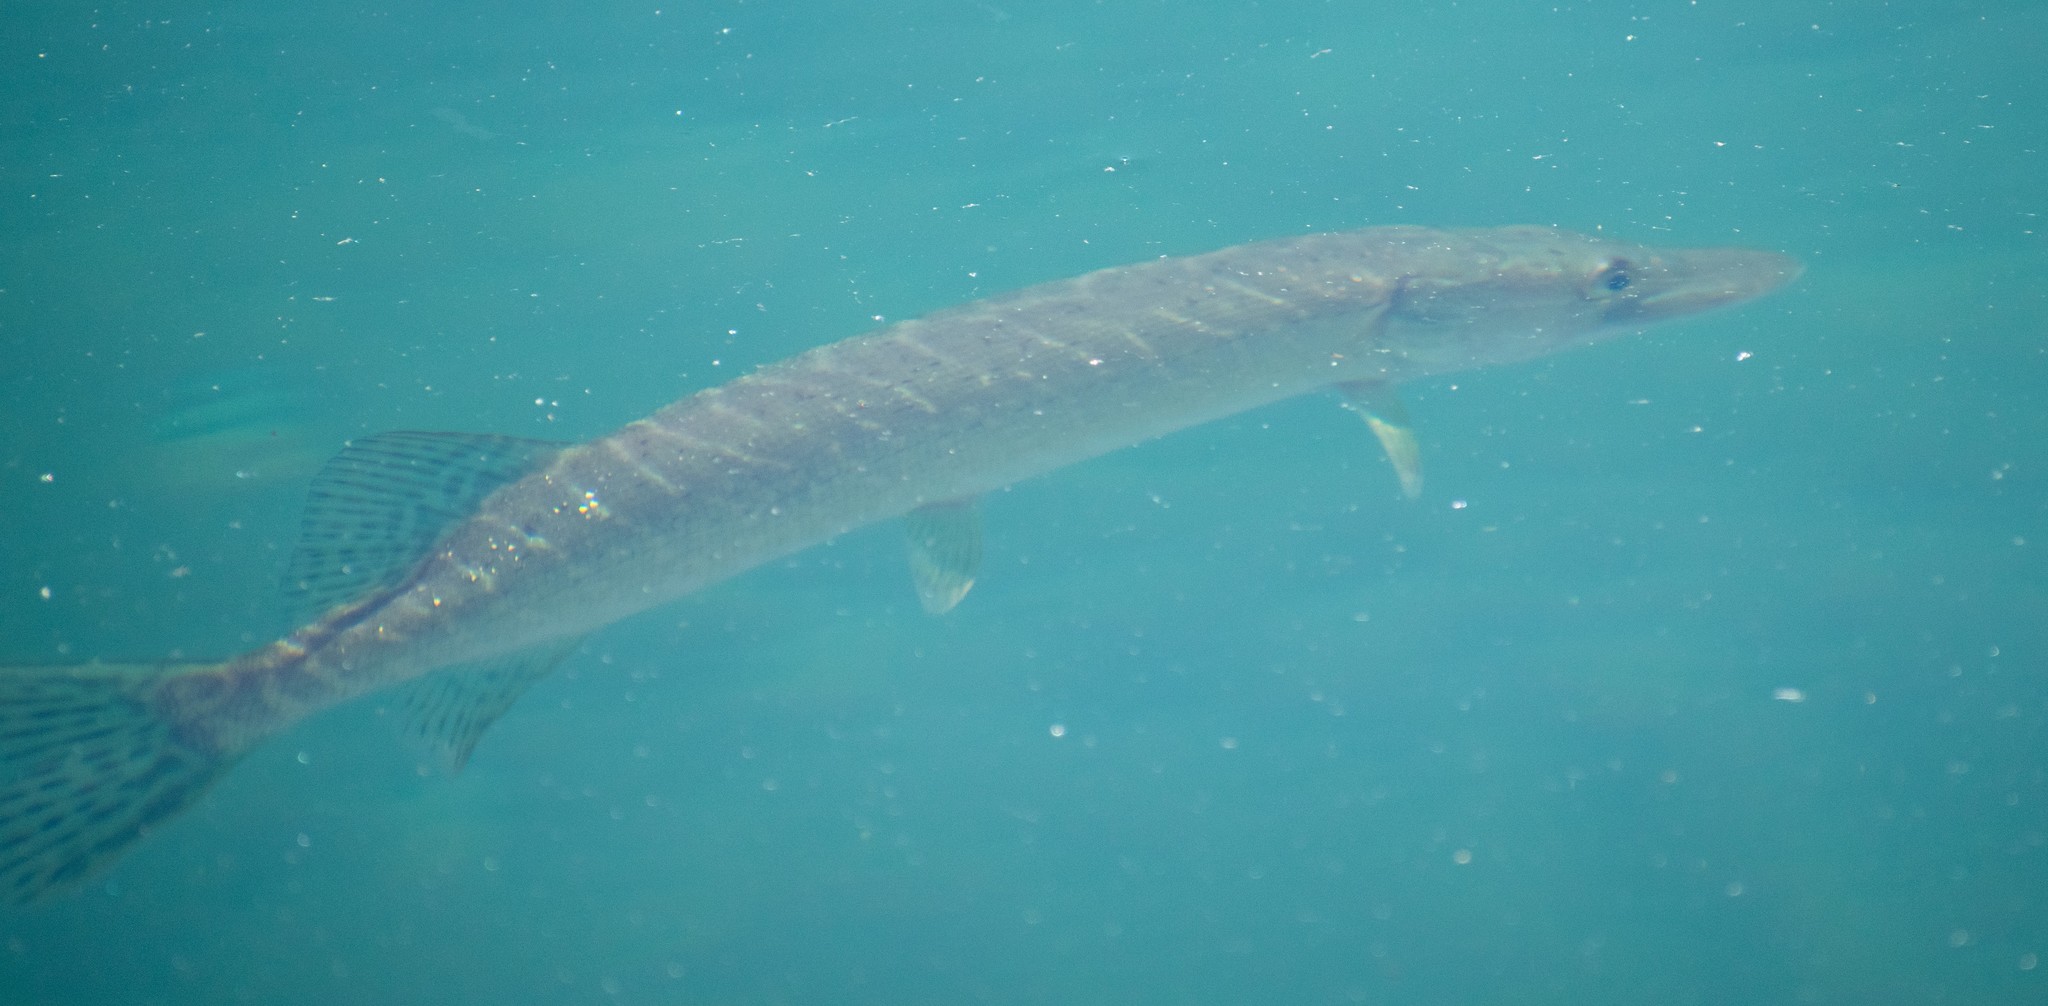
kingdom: Animalia
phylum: Chordata
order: Esociformes
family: Esocidae
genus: Esox
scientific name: Esox lucius
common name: Northern pike
